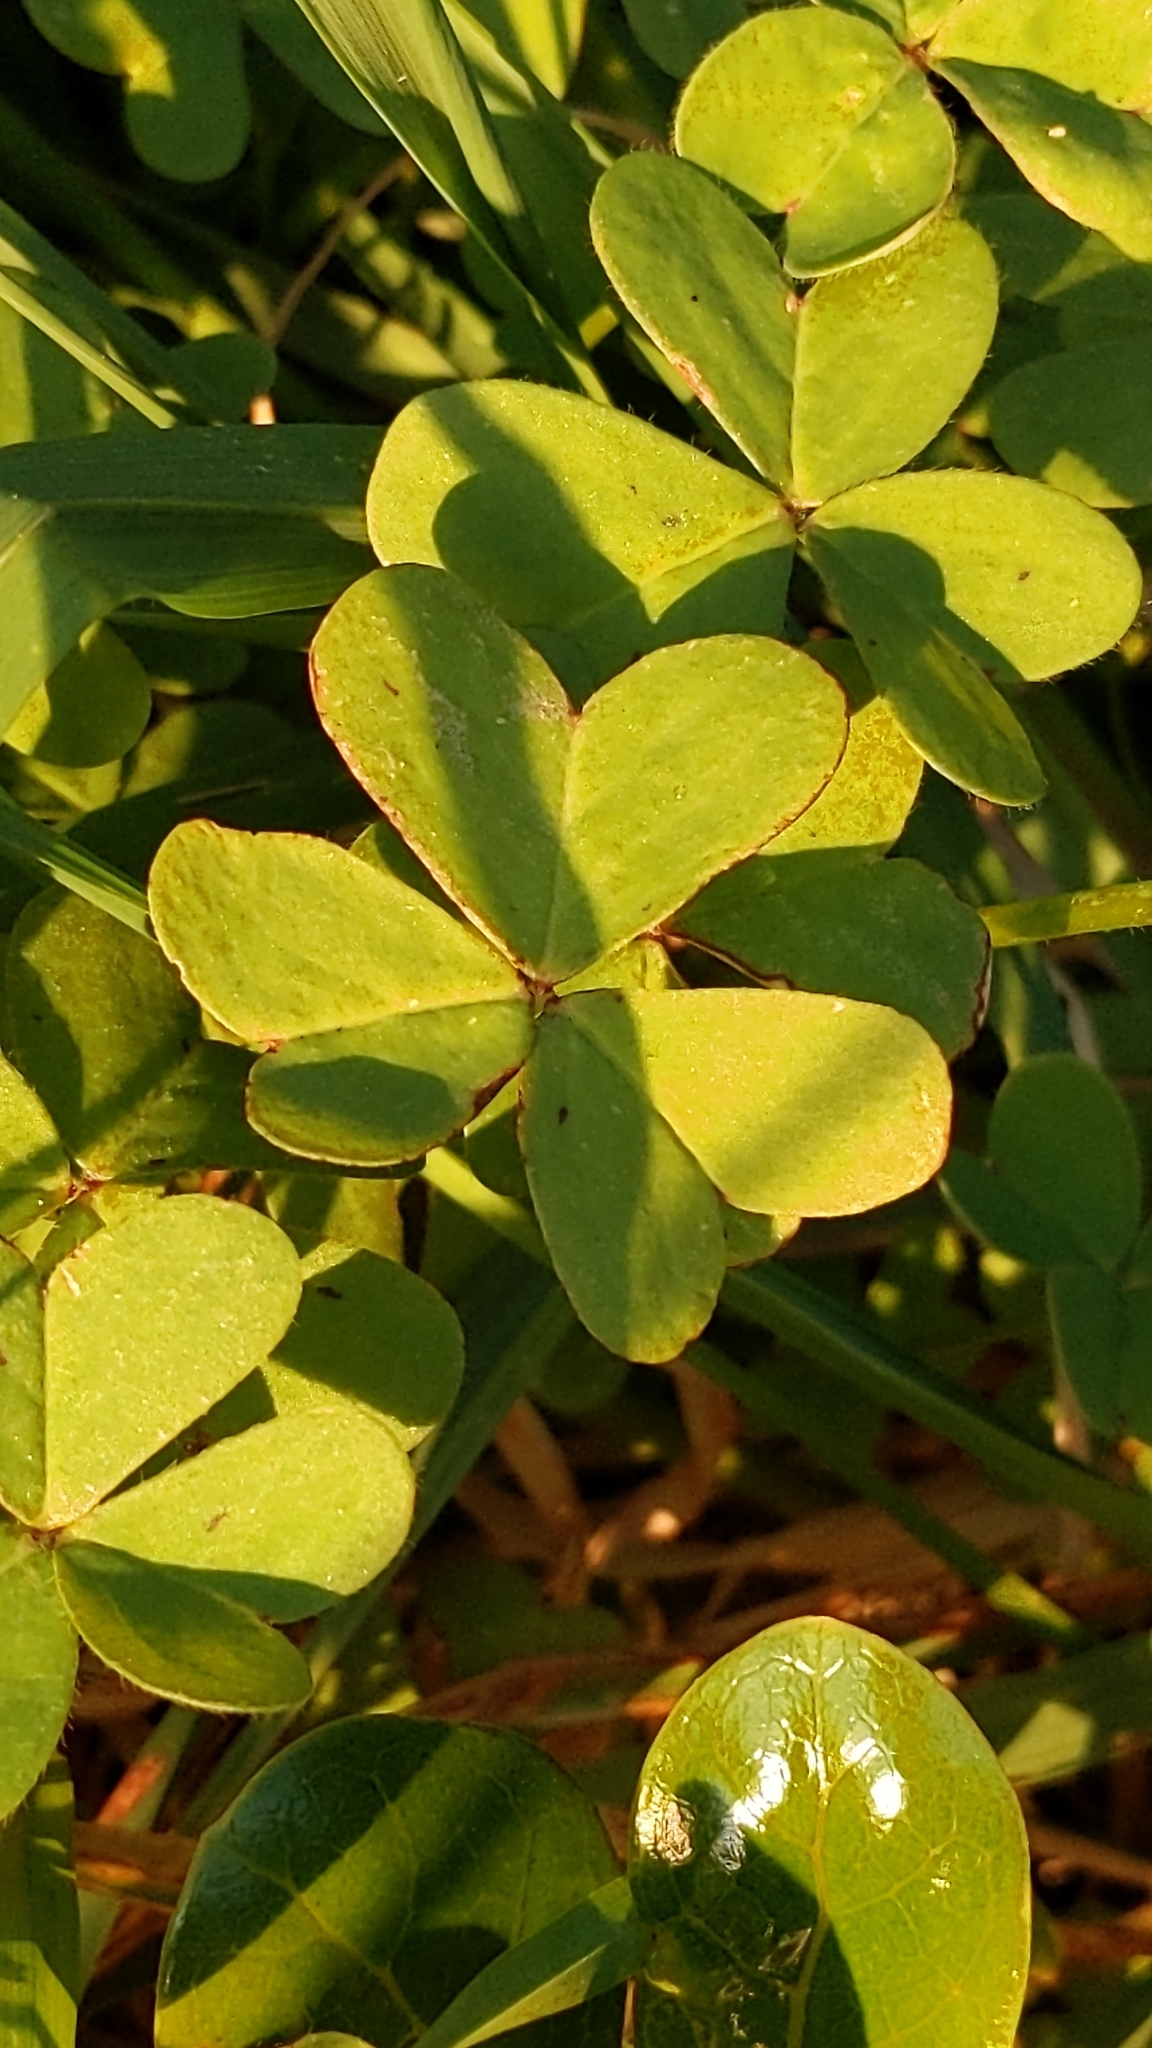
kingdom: Plantae
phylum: Tracheophyta
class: Magnoliopsida
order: Oxalidales
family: Oxalidaceae
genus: Oxalis
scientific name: Oxalis pes-caprae
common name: Bermuda-buttercup
